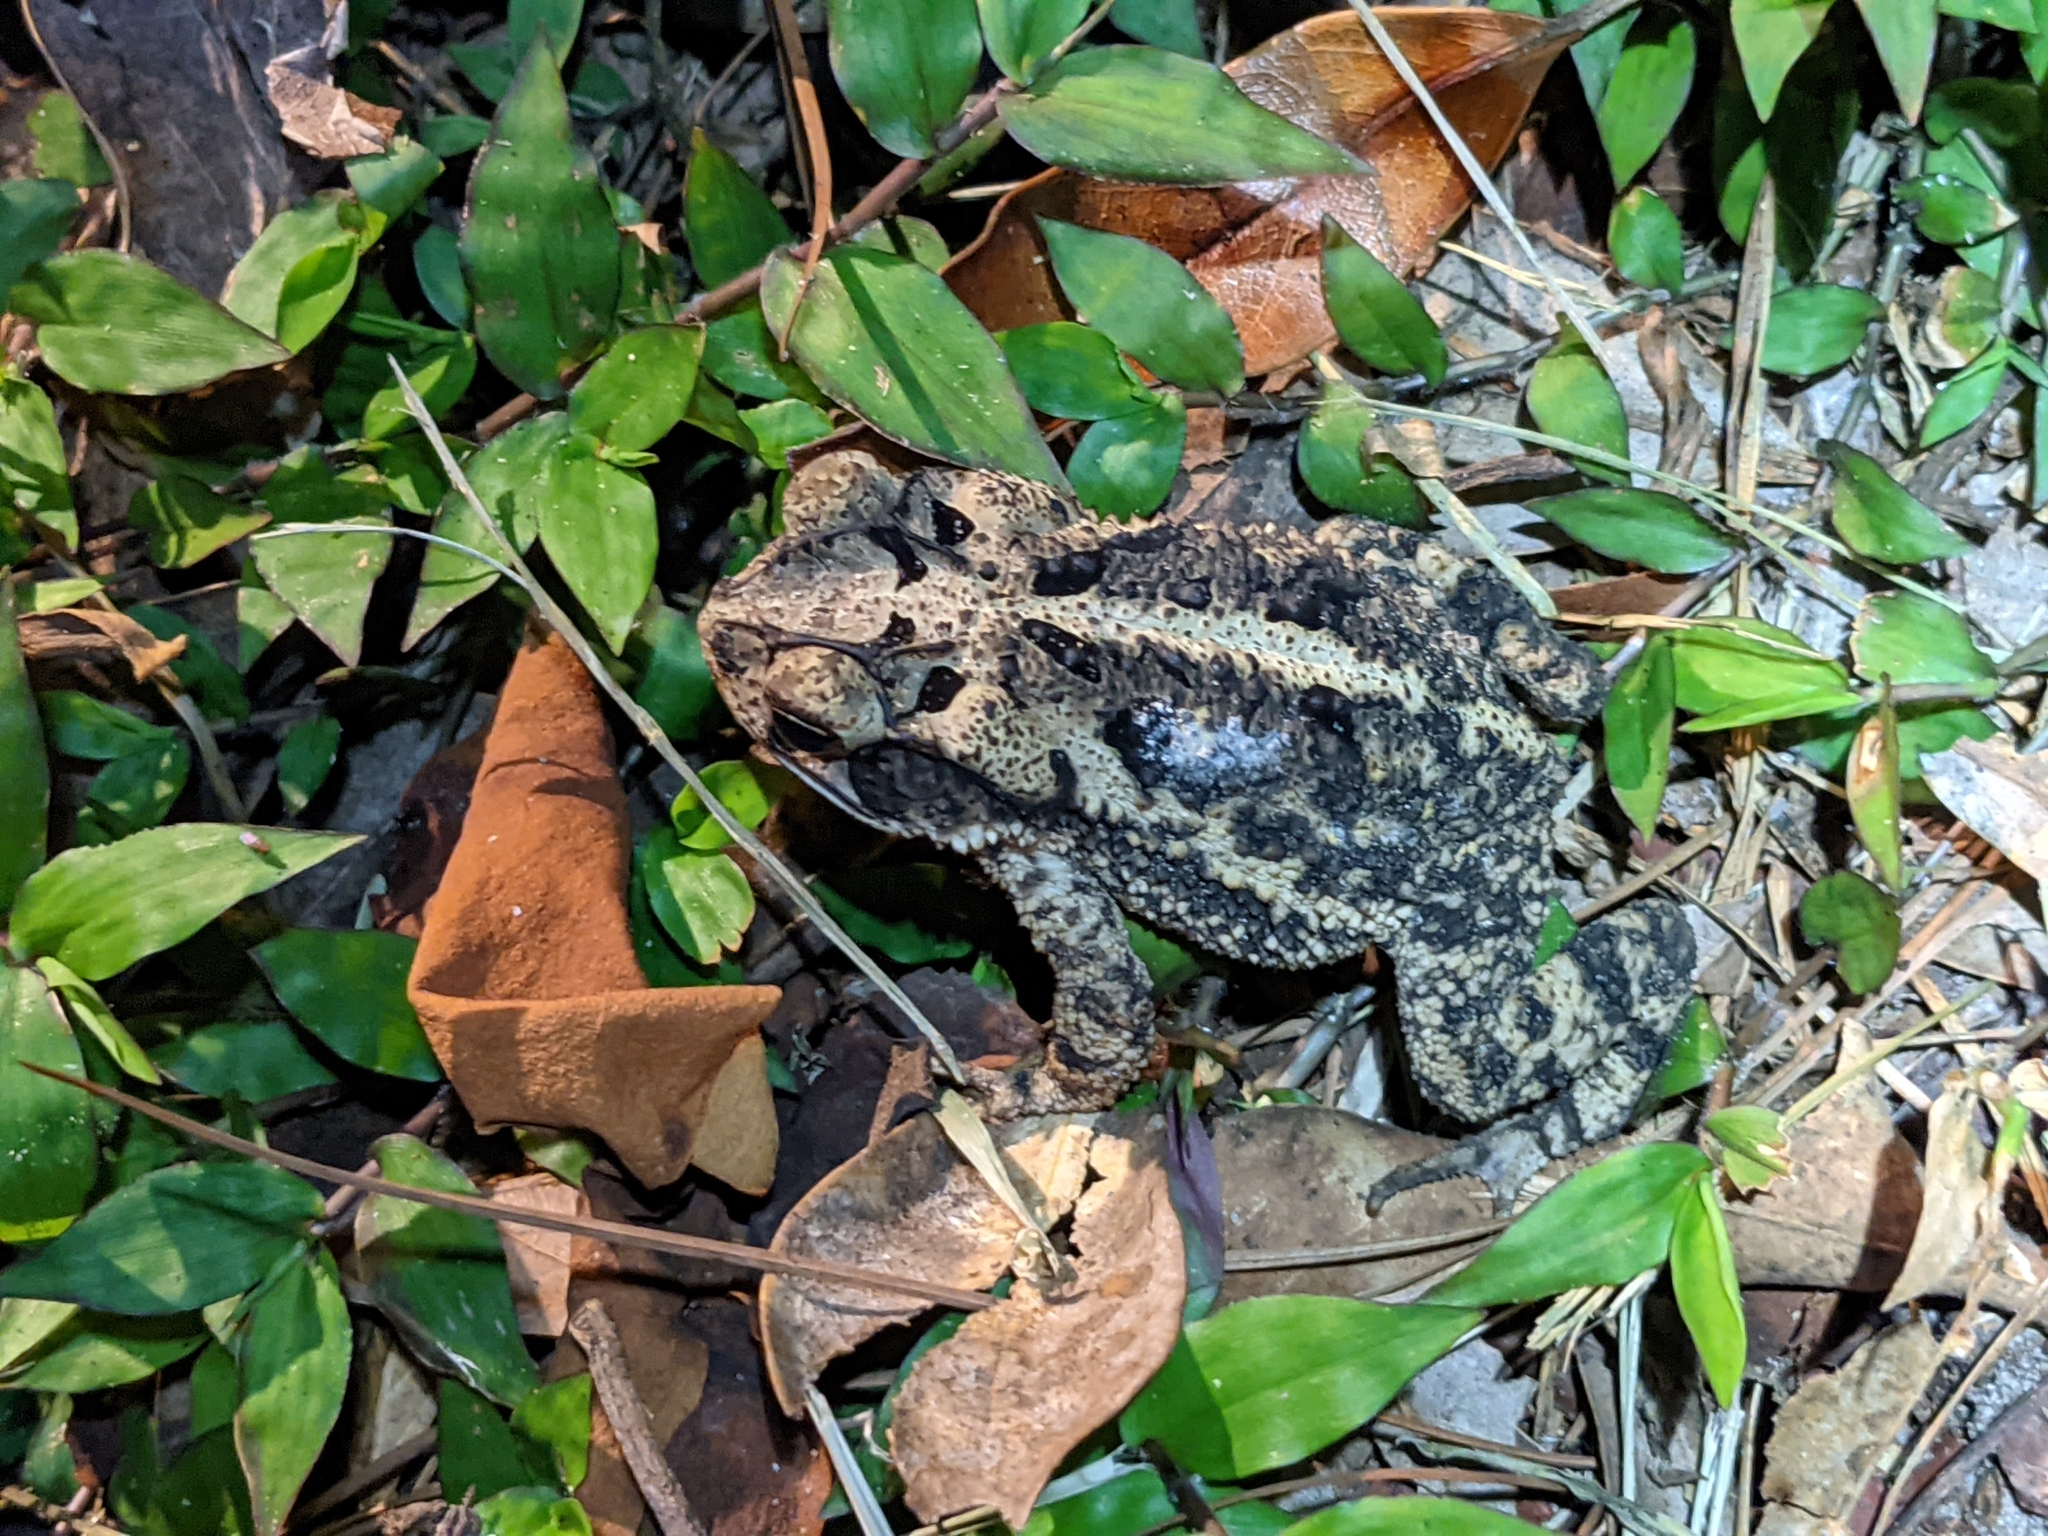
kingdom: Animalia
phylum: Chordata
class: Amphibia
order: Anura
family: Bufonidae
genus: Incilius
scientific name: Incilius nebulifer
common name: Gulf coast toad
